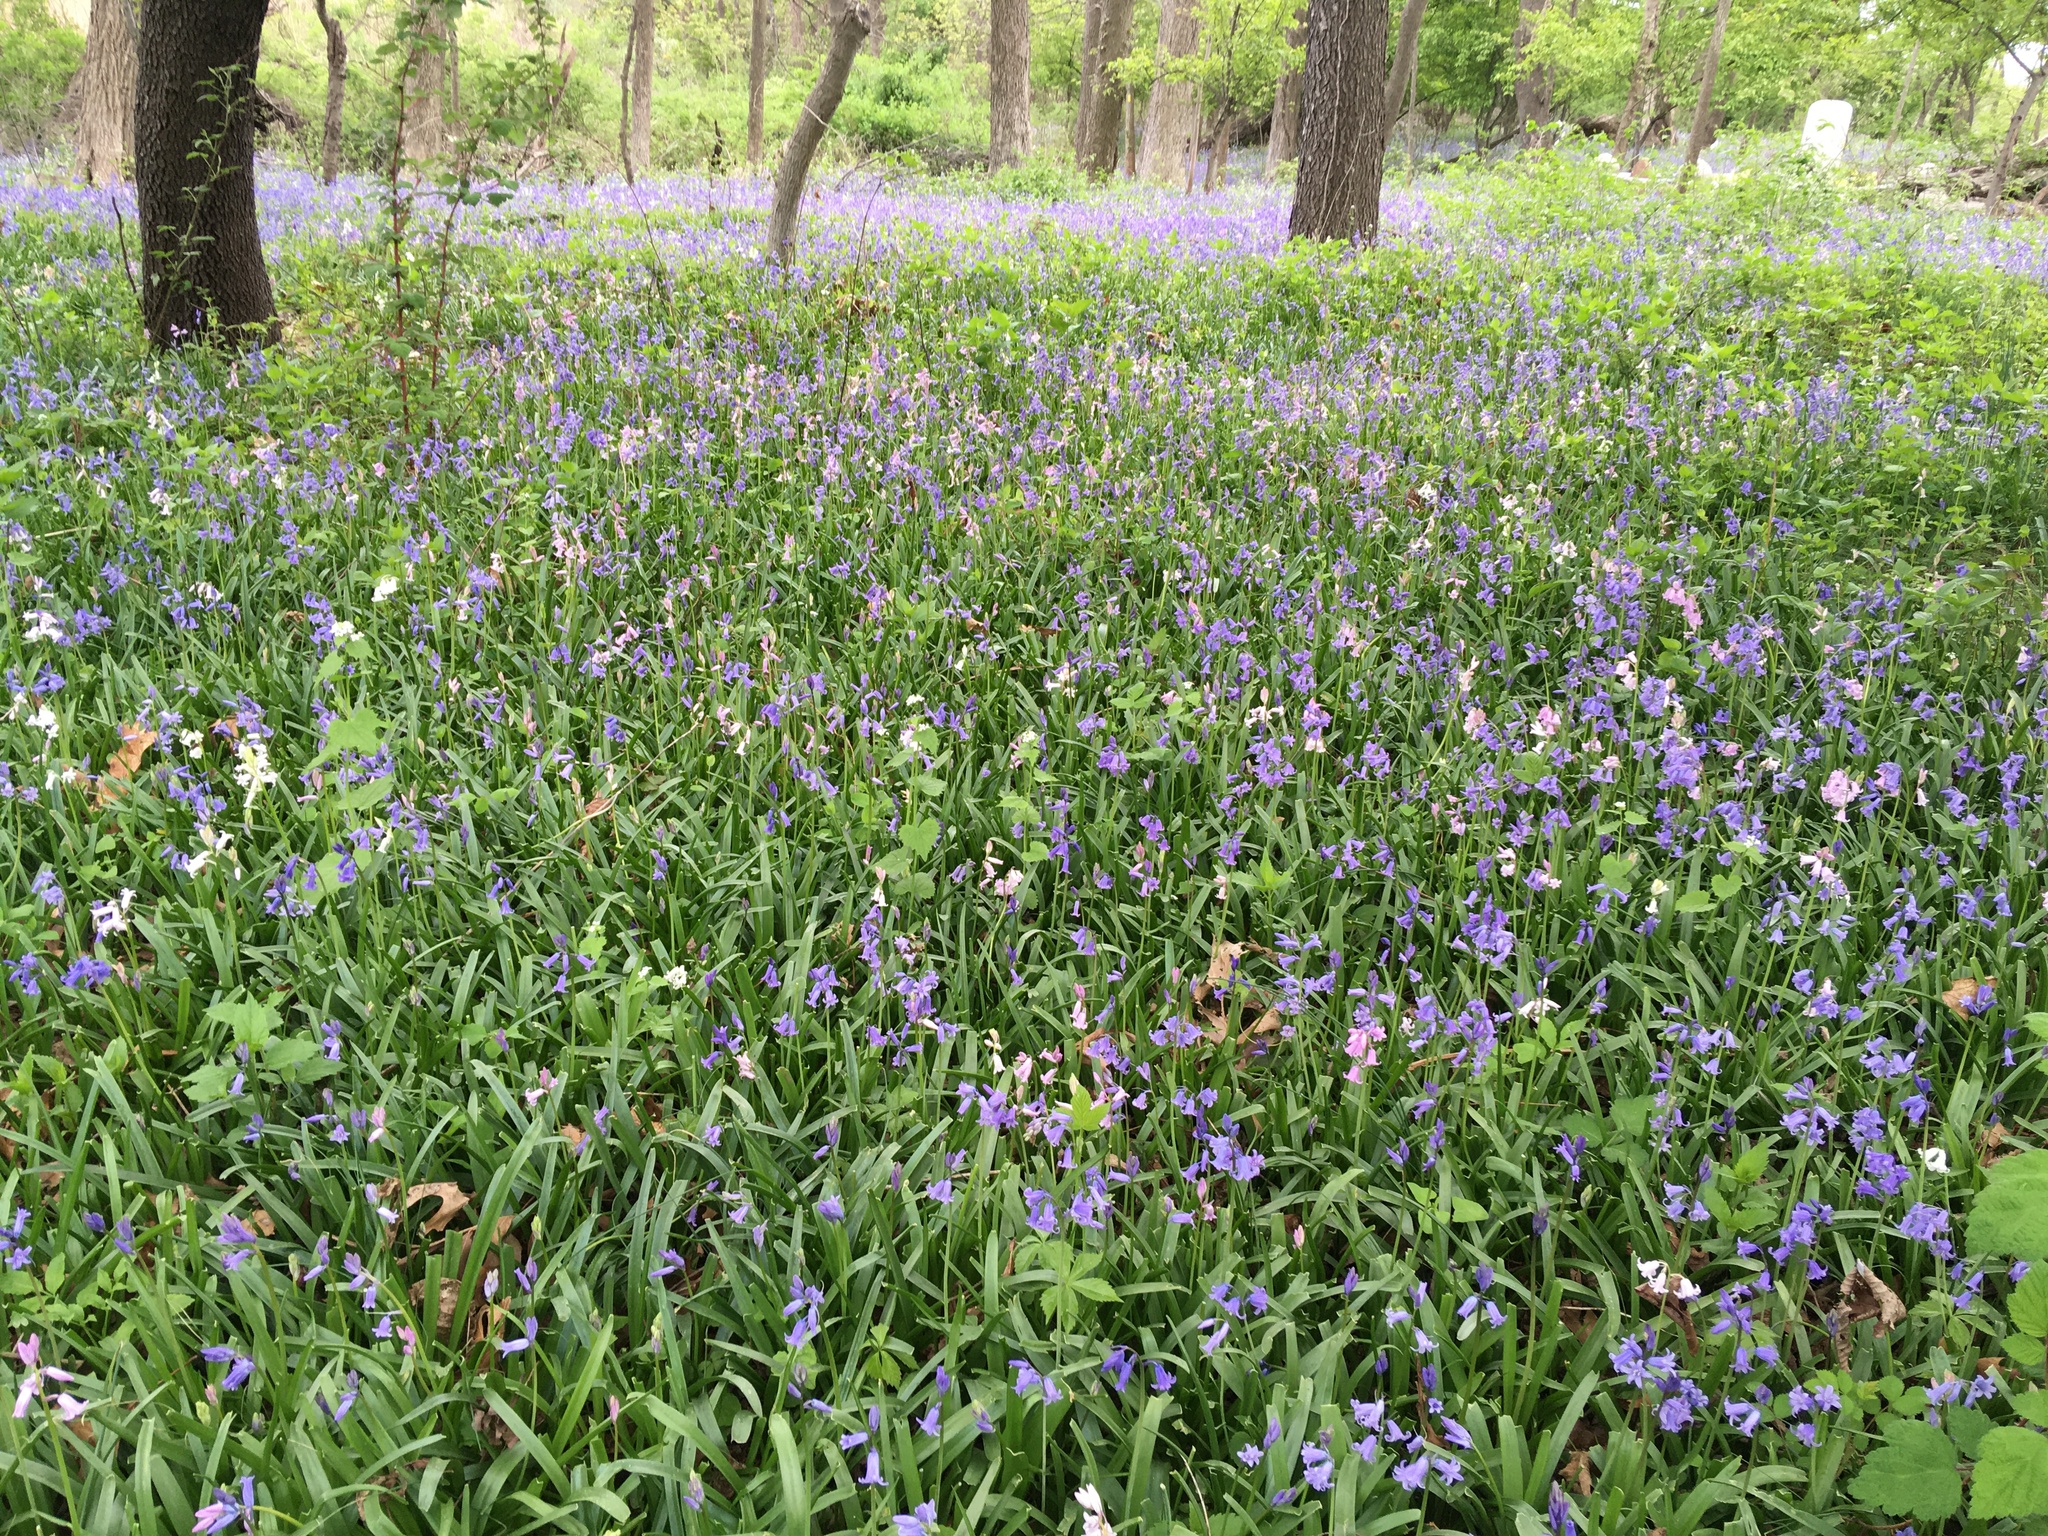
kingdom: Plantae
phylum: Tracheophyta
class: Liliopsida
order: Asparagales
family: Asparagaceae
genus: Hyacinthoides
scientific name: Hyacinthoides massartiana
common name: Hyacinthoides
